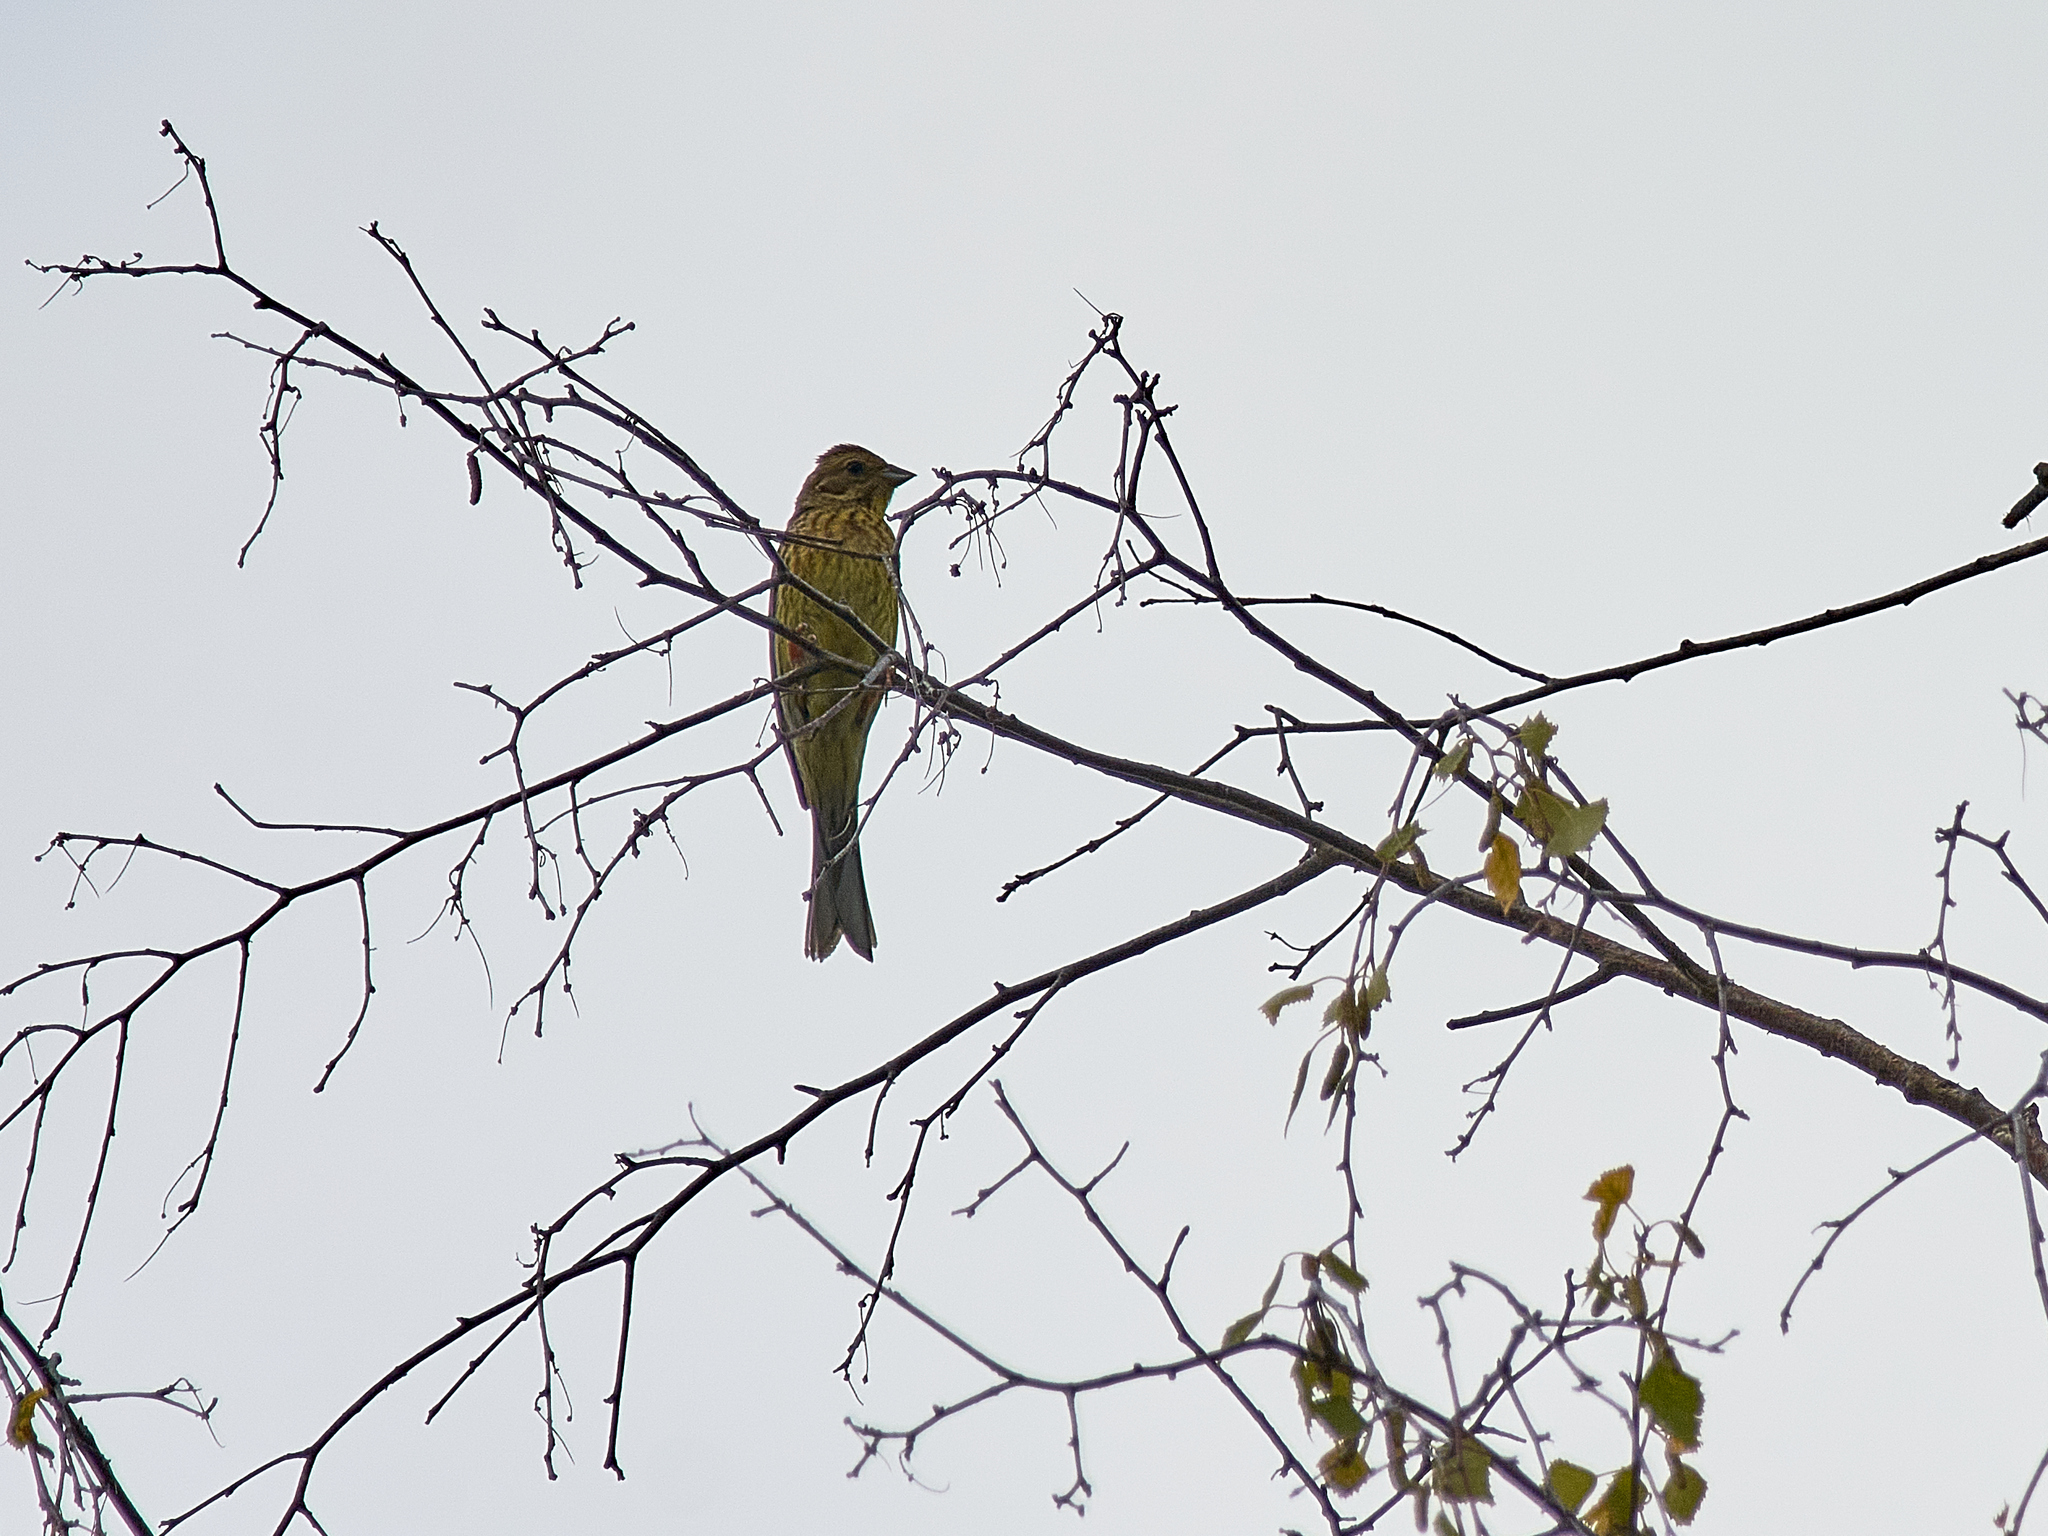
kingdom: Animalia
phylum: Chordata
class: Aves
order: Passeriformes
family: Emberizidae
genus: Emberiza
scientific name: Emberiza citrinella
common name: Yellowhammer
